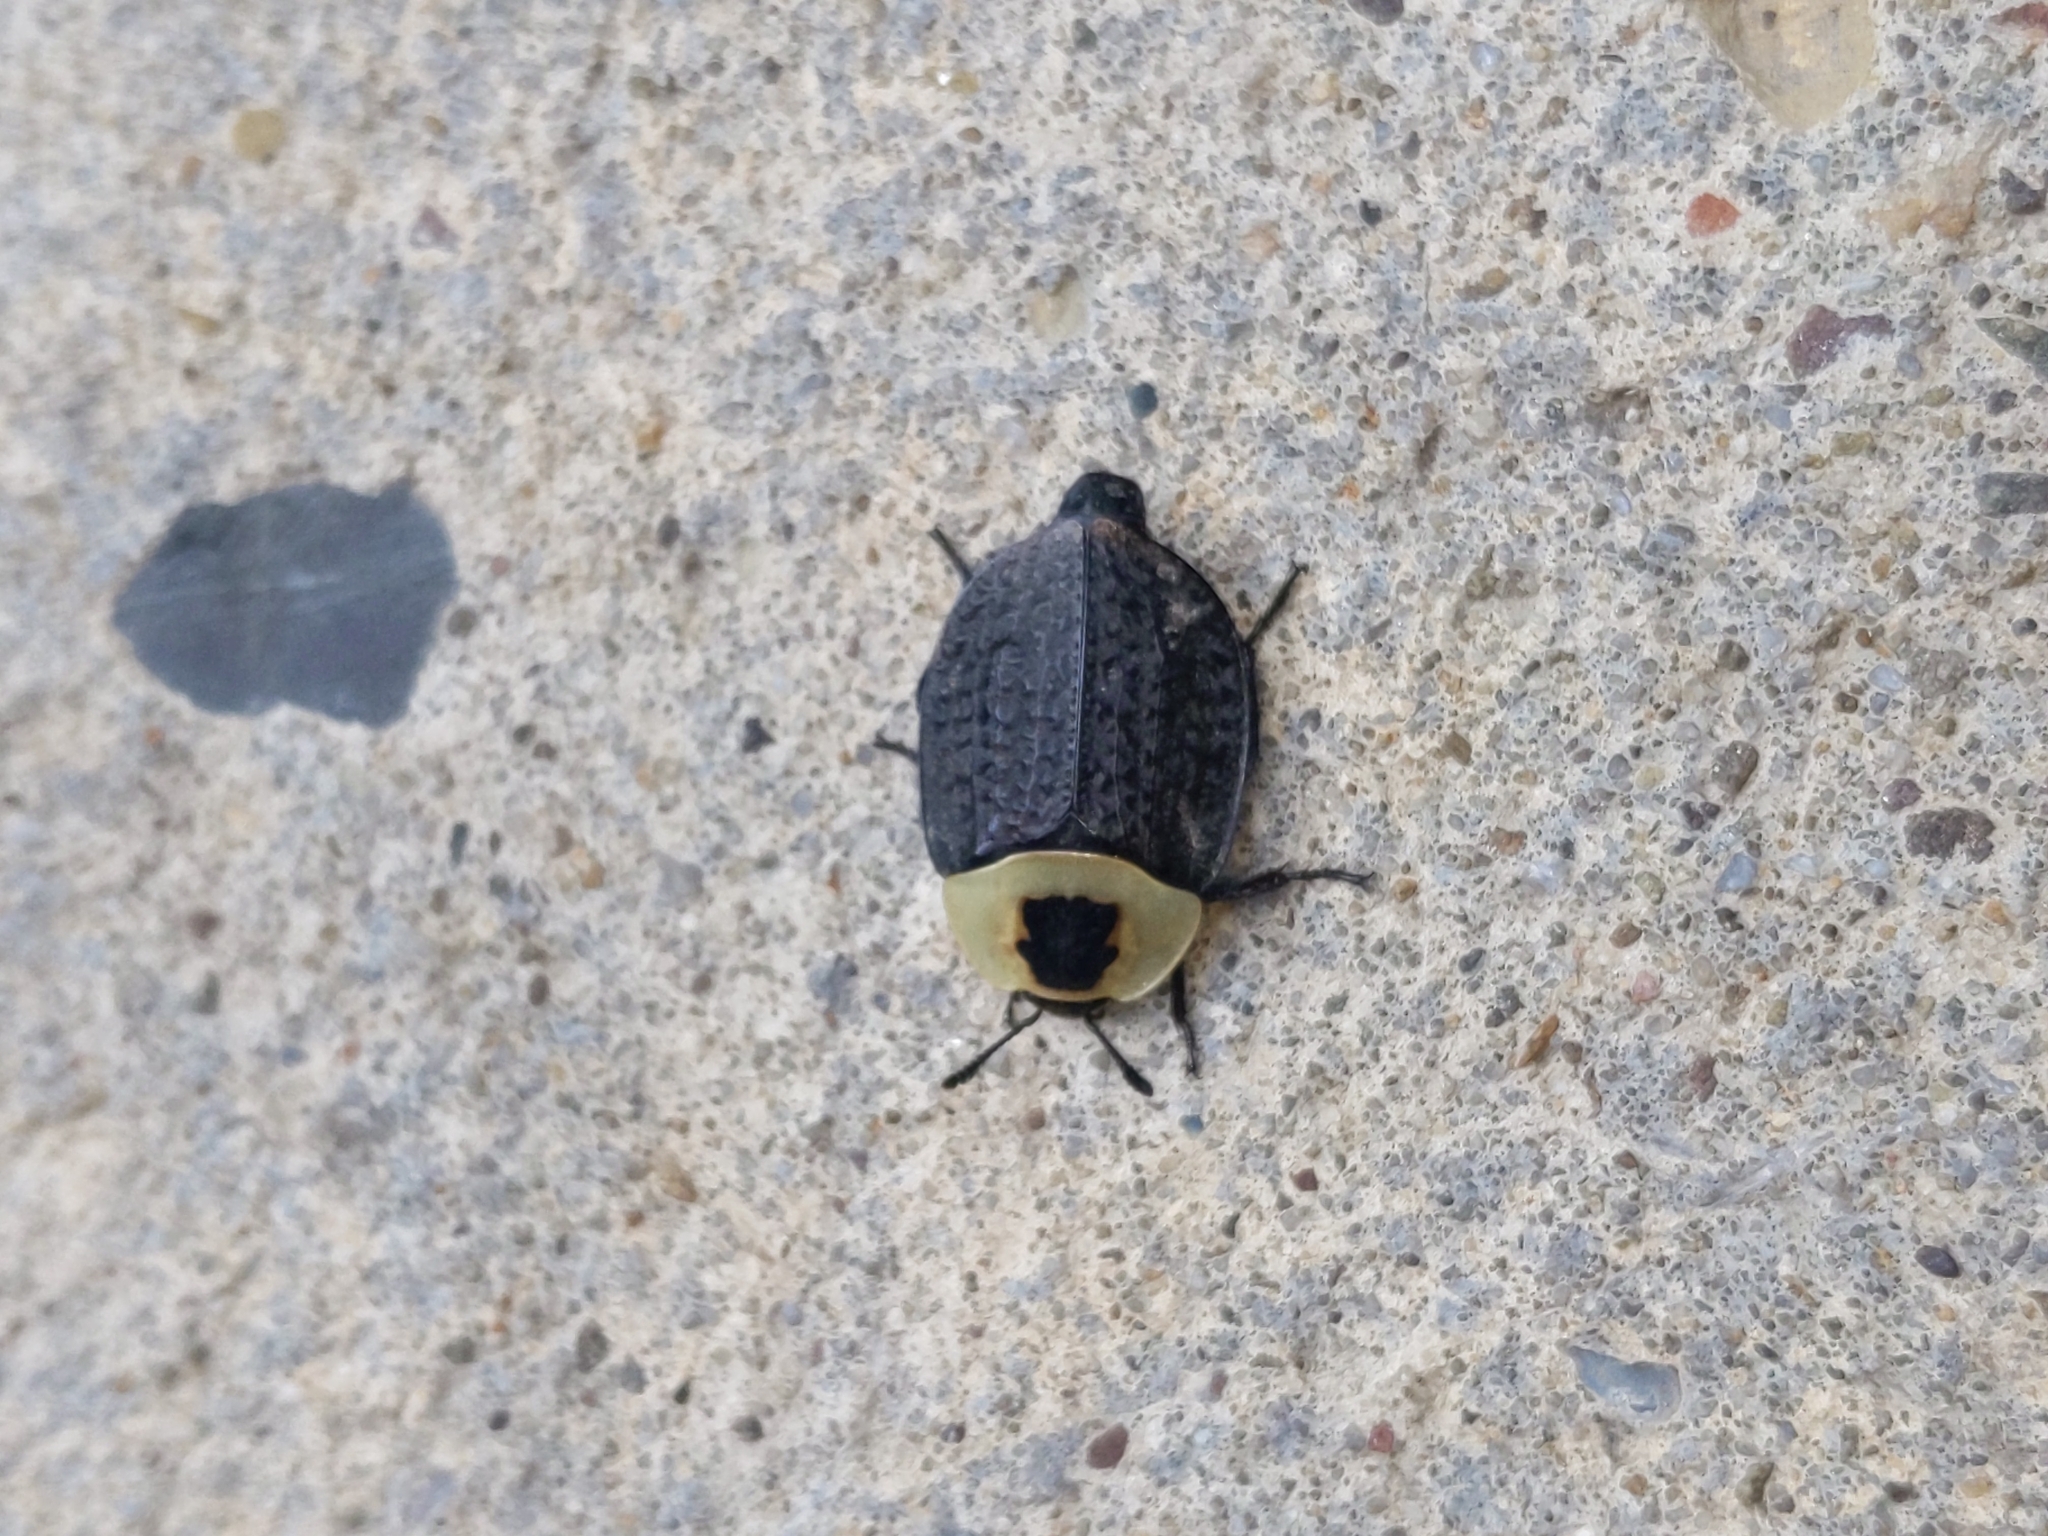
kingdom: Animalia
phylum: Arthropoda
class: Insecta
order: Coleoptera
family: Staphylinidae
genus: Necrophila
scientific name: Necrophila americana
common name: American carrion beetle
